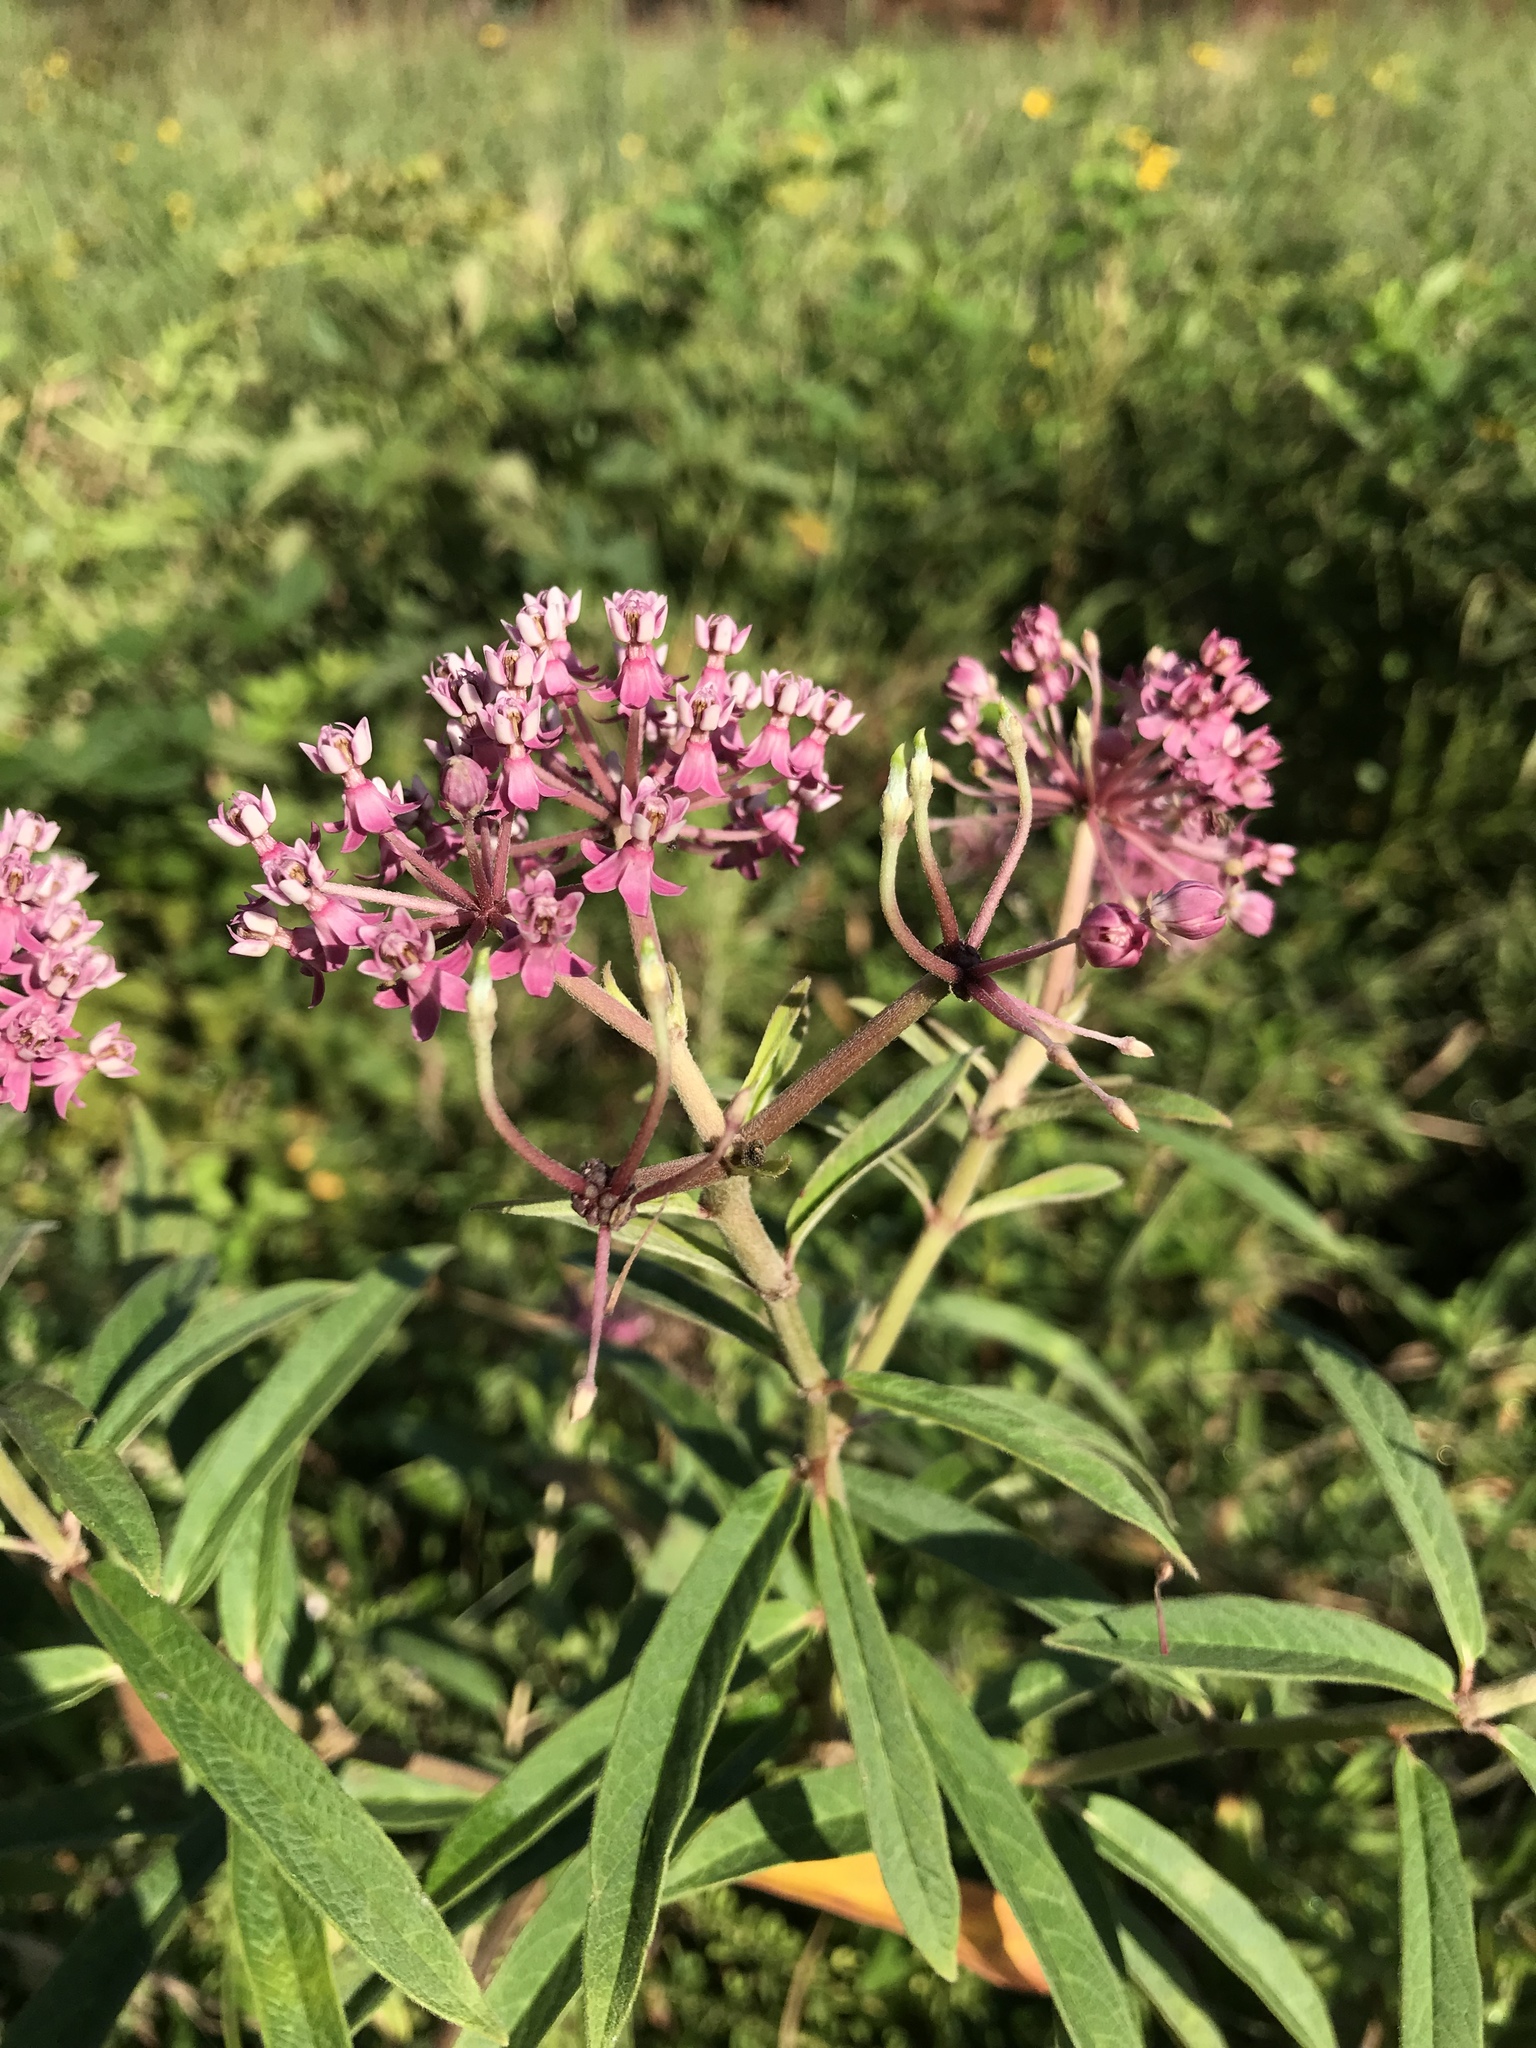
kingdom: Plantae
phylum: Tracheophyta
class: Magnoliopsida
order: Gentianales
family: Apocynaceae
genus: Asclepias
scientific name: Asclepias incarnata
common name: Swamp milkweed
